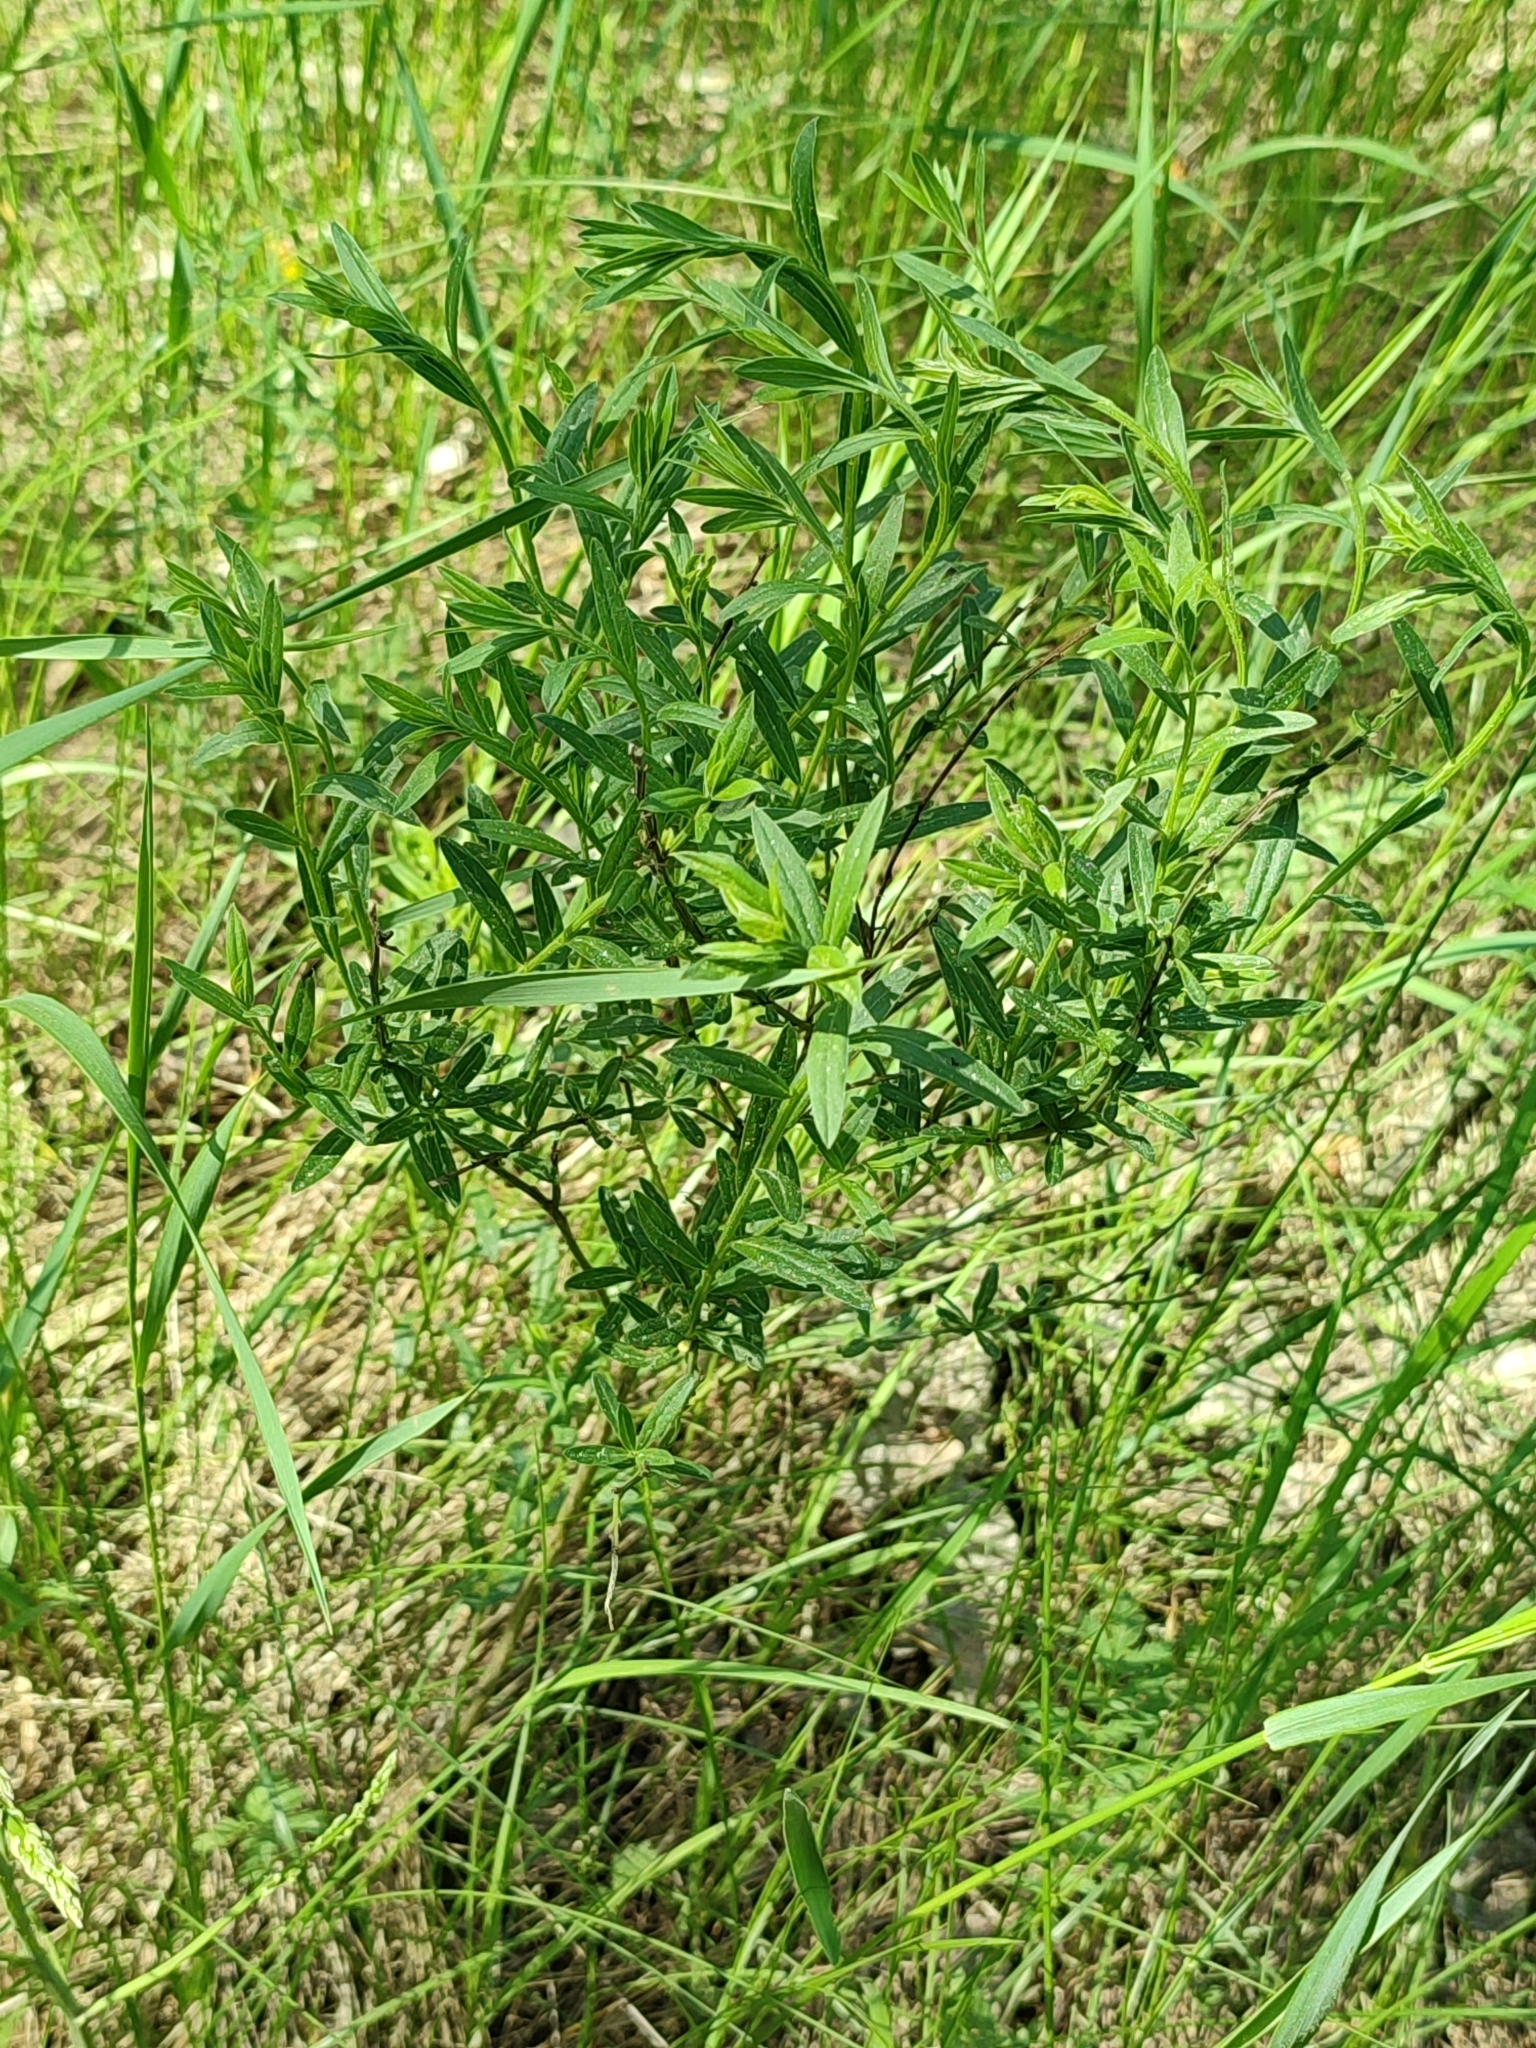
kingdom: Plantae
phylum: Tracheophyta
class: Magnoliopsida
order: Fabales
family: Fabaceae
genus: Genista
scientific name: Genista tinctoria
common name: Dyer's greenweed
